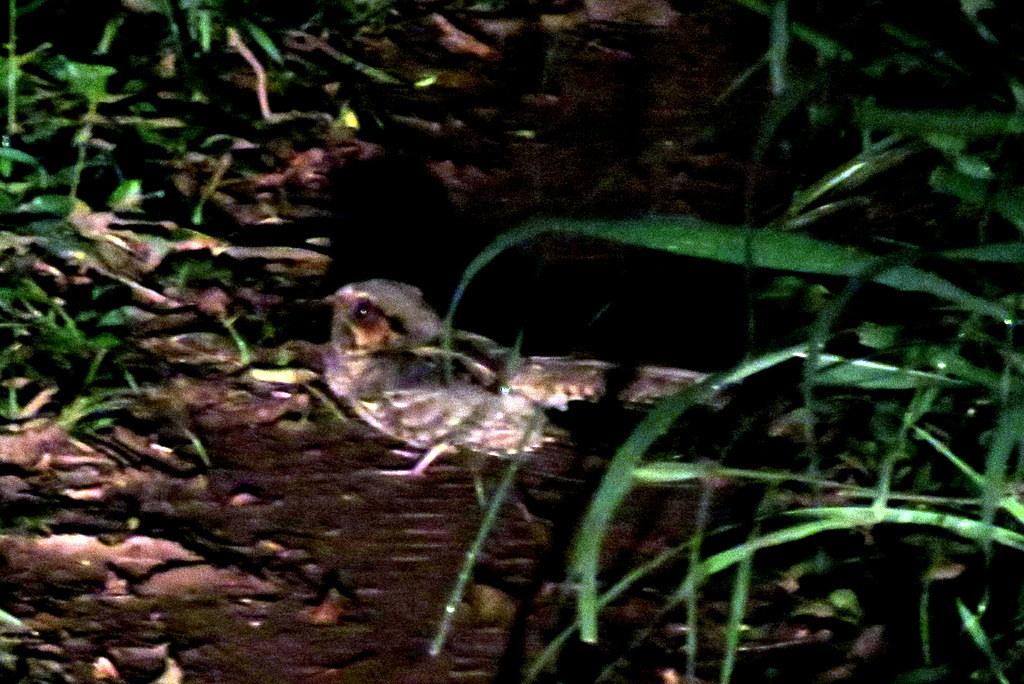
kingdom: Animalia
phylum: Chordata
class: Aves
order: Caprimulgiformes
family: Caprimulgidae
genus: Nyctidromus
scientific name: Nyctidromus albicollis
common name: Pauraque
